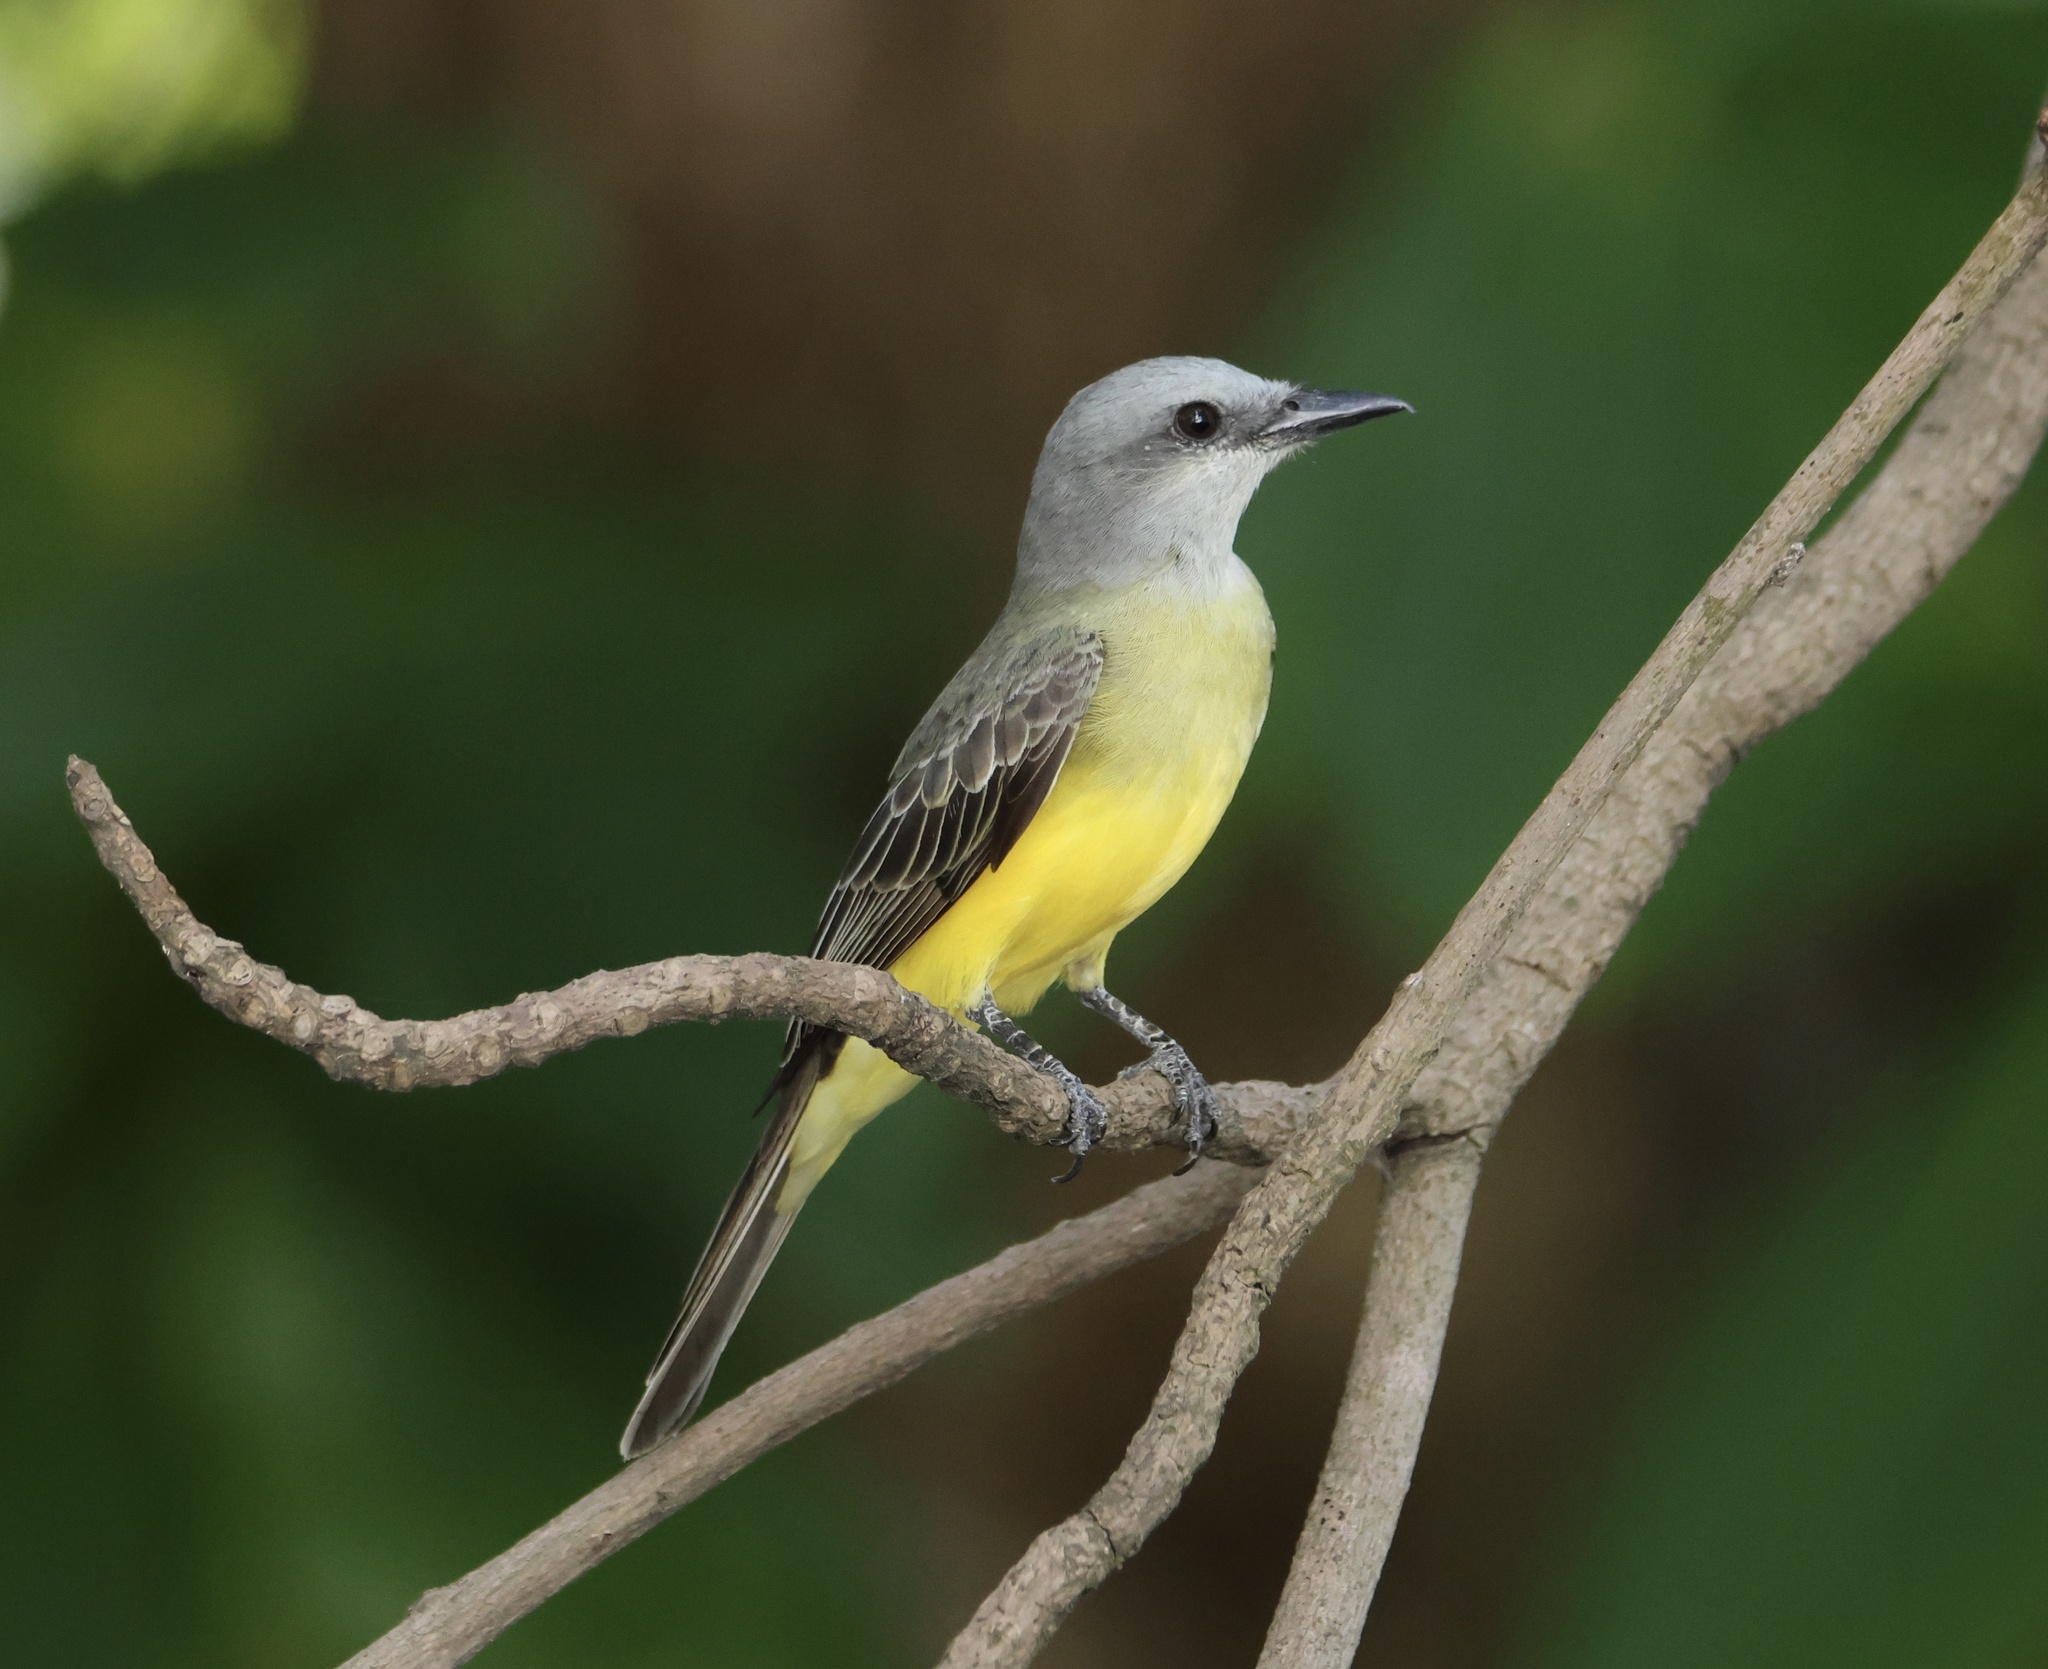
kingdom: Animalia
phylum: Chordata
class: Aves
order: Passeriformes
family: Tyrannidae
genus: Tyrannus
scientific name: Tyrannus melancholicus
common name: Tropical kingbird
